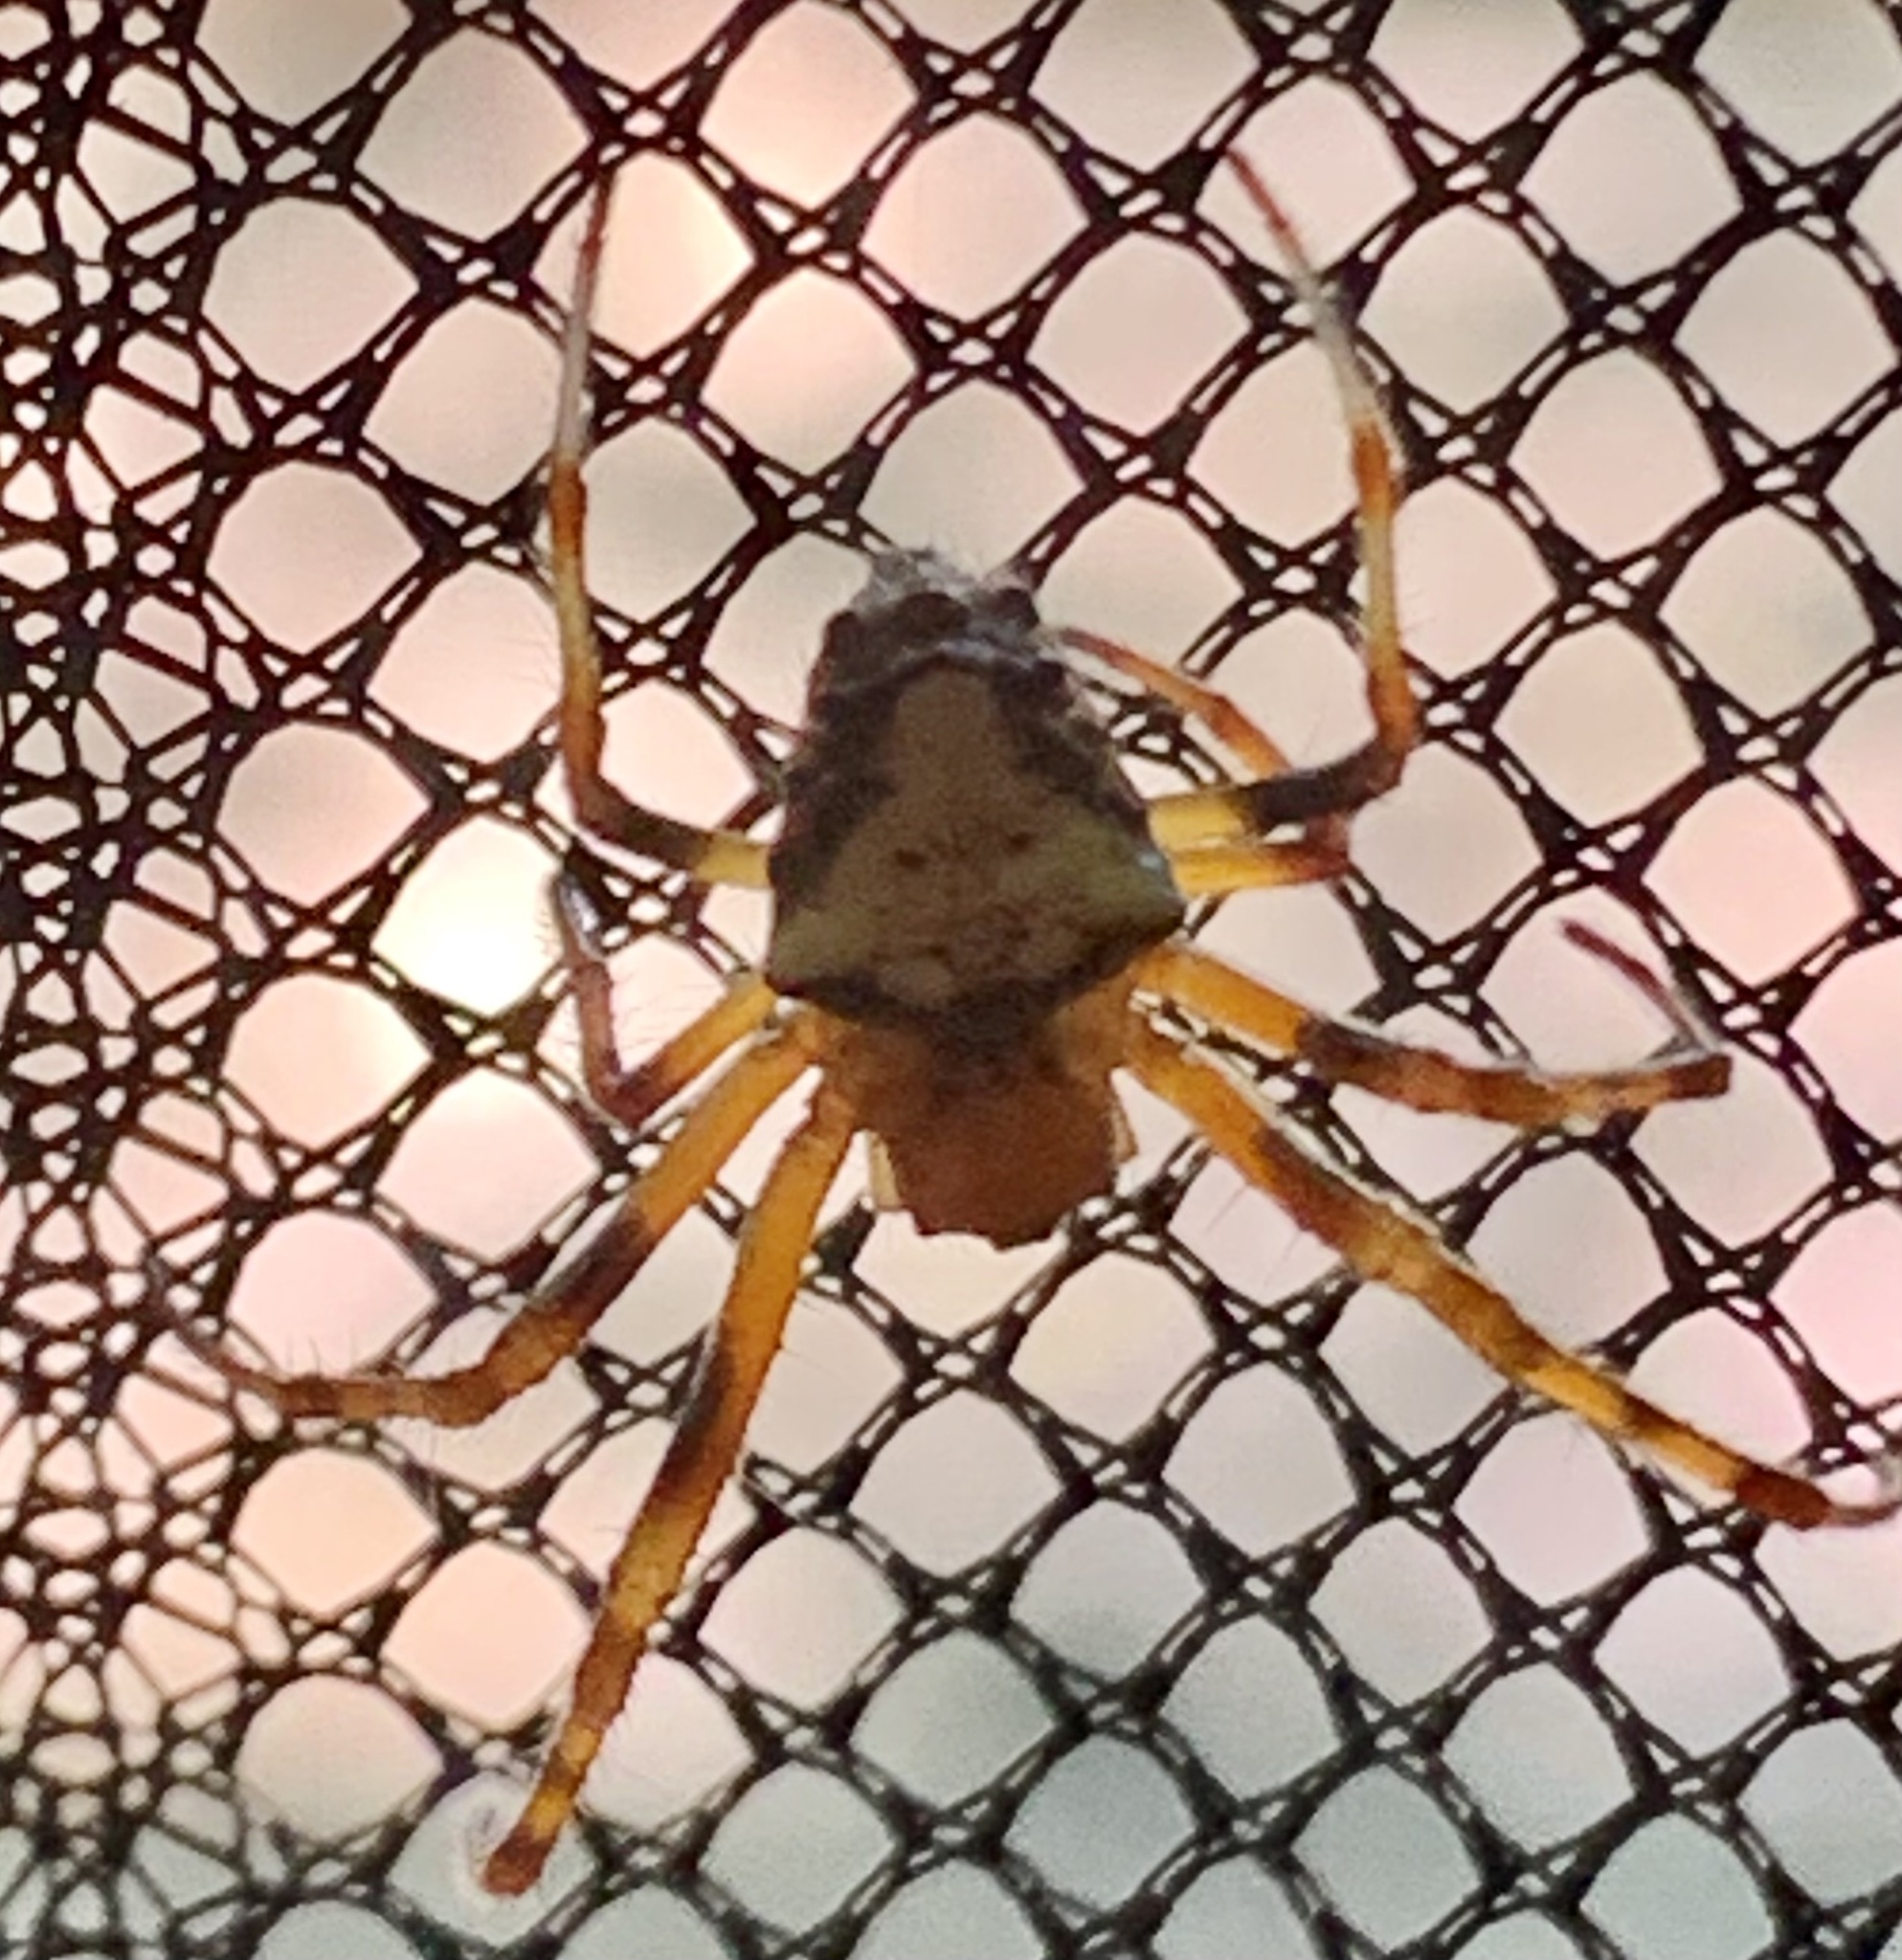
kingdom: Animalia
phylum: Arthropoda
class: Arachnida
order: Araneae
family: Araneidae
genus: Verrucosa
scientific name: Verrucosa arenata
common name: Orb weavers
